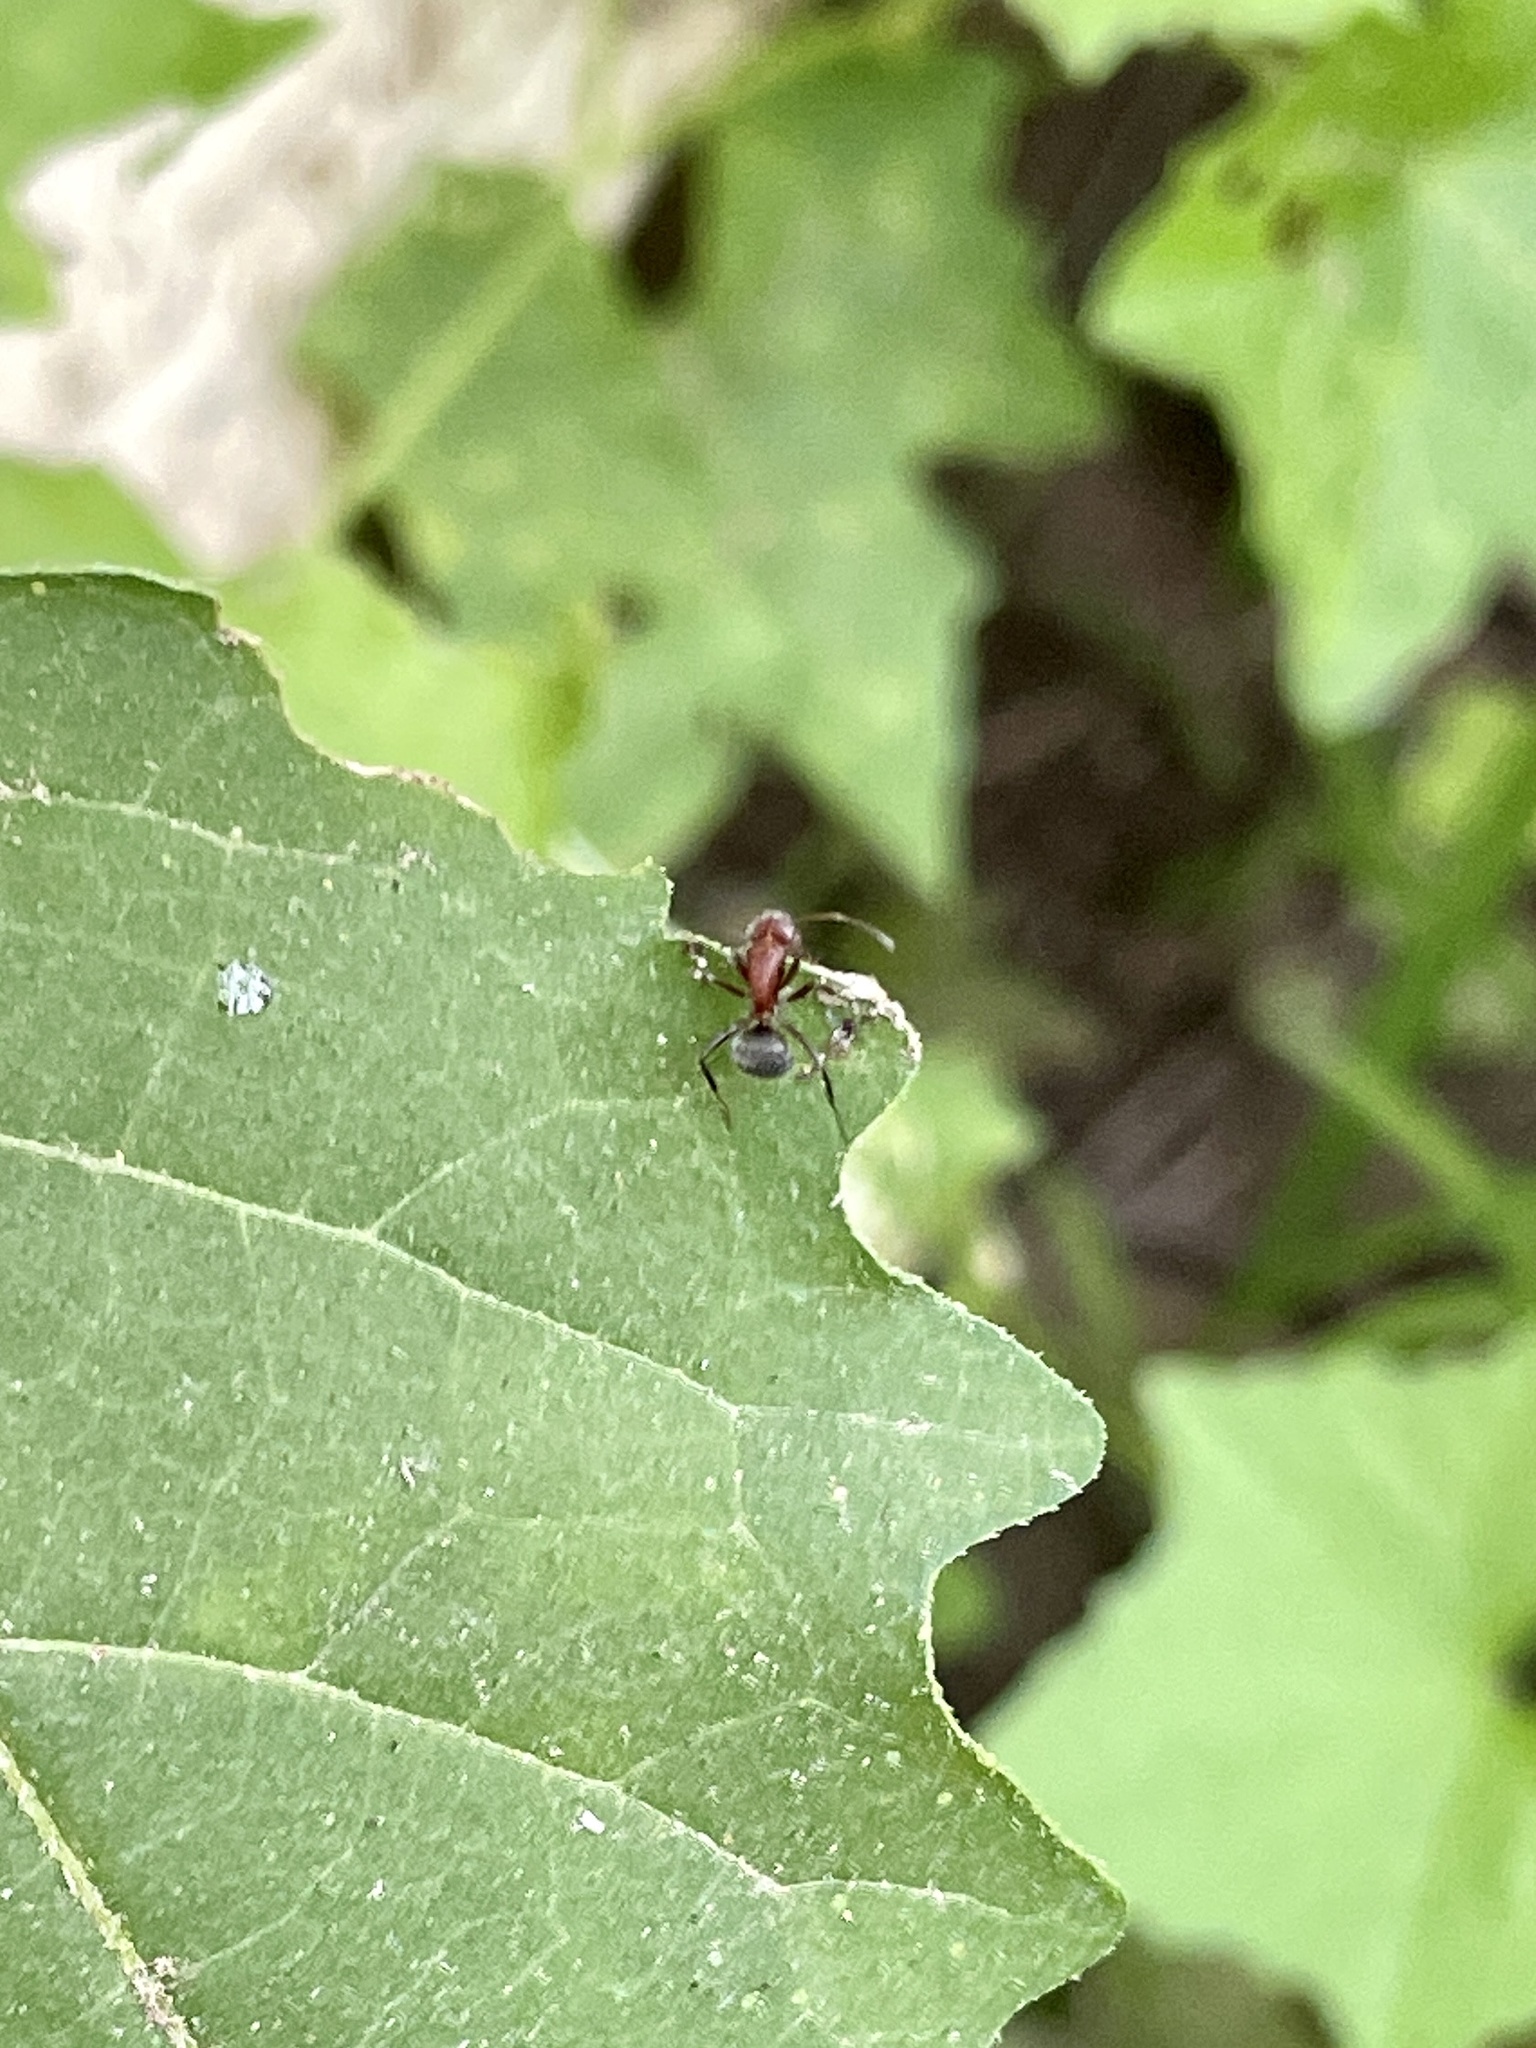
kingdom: Animalia
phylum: Arthropoda
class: Insecta
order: Hymenoptera
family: Formicidae
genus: Camponotus
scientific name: Camponotus planatus
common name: Compact carpenter ant
